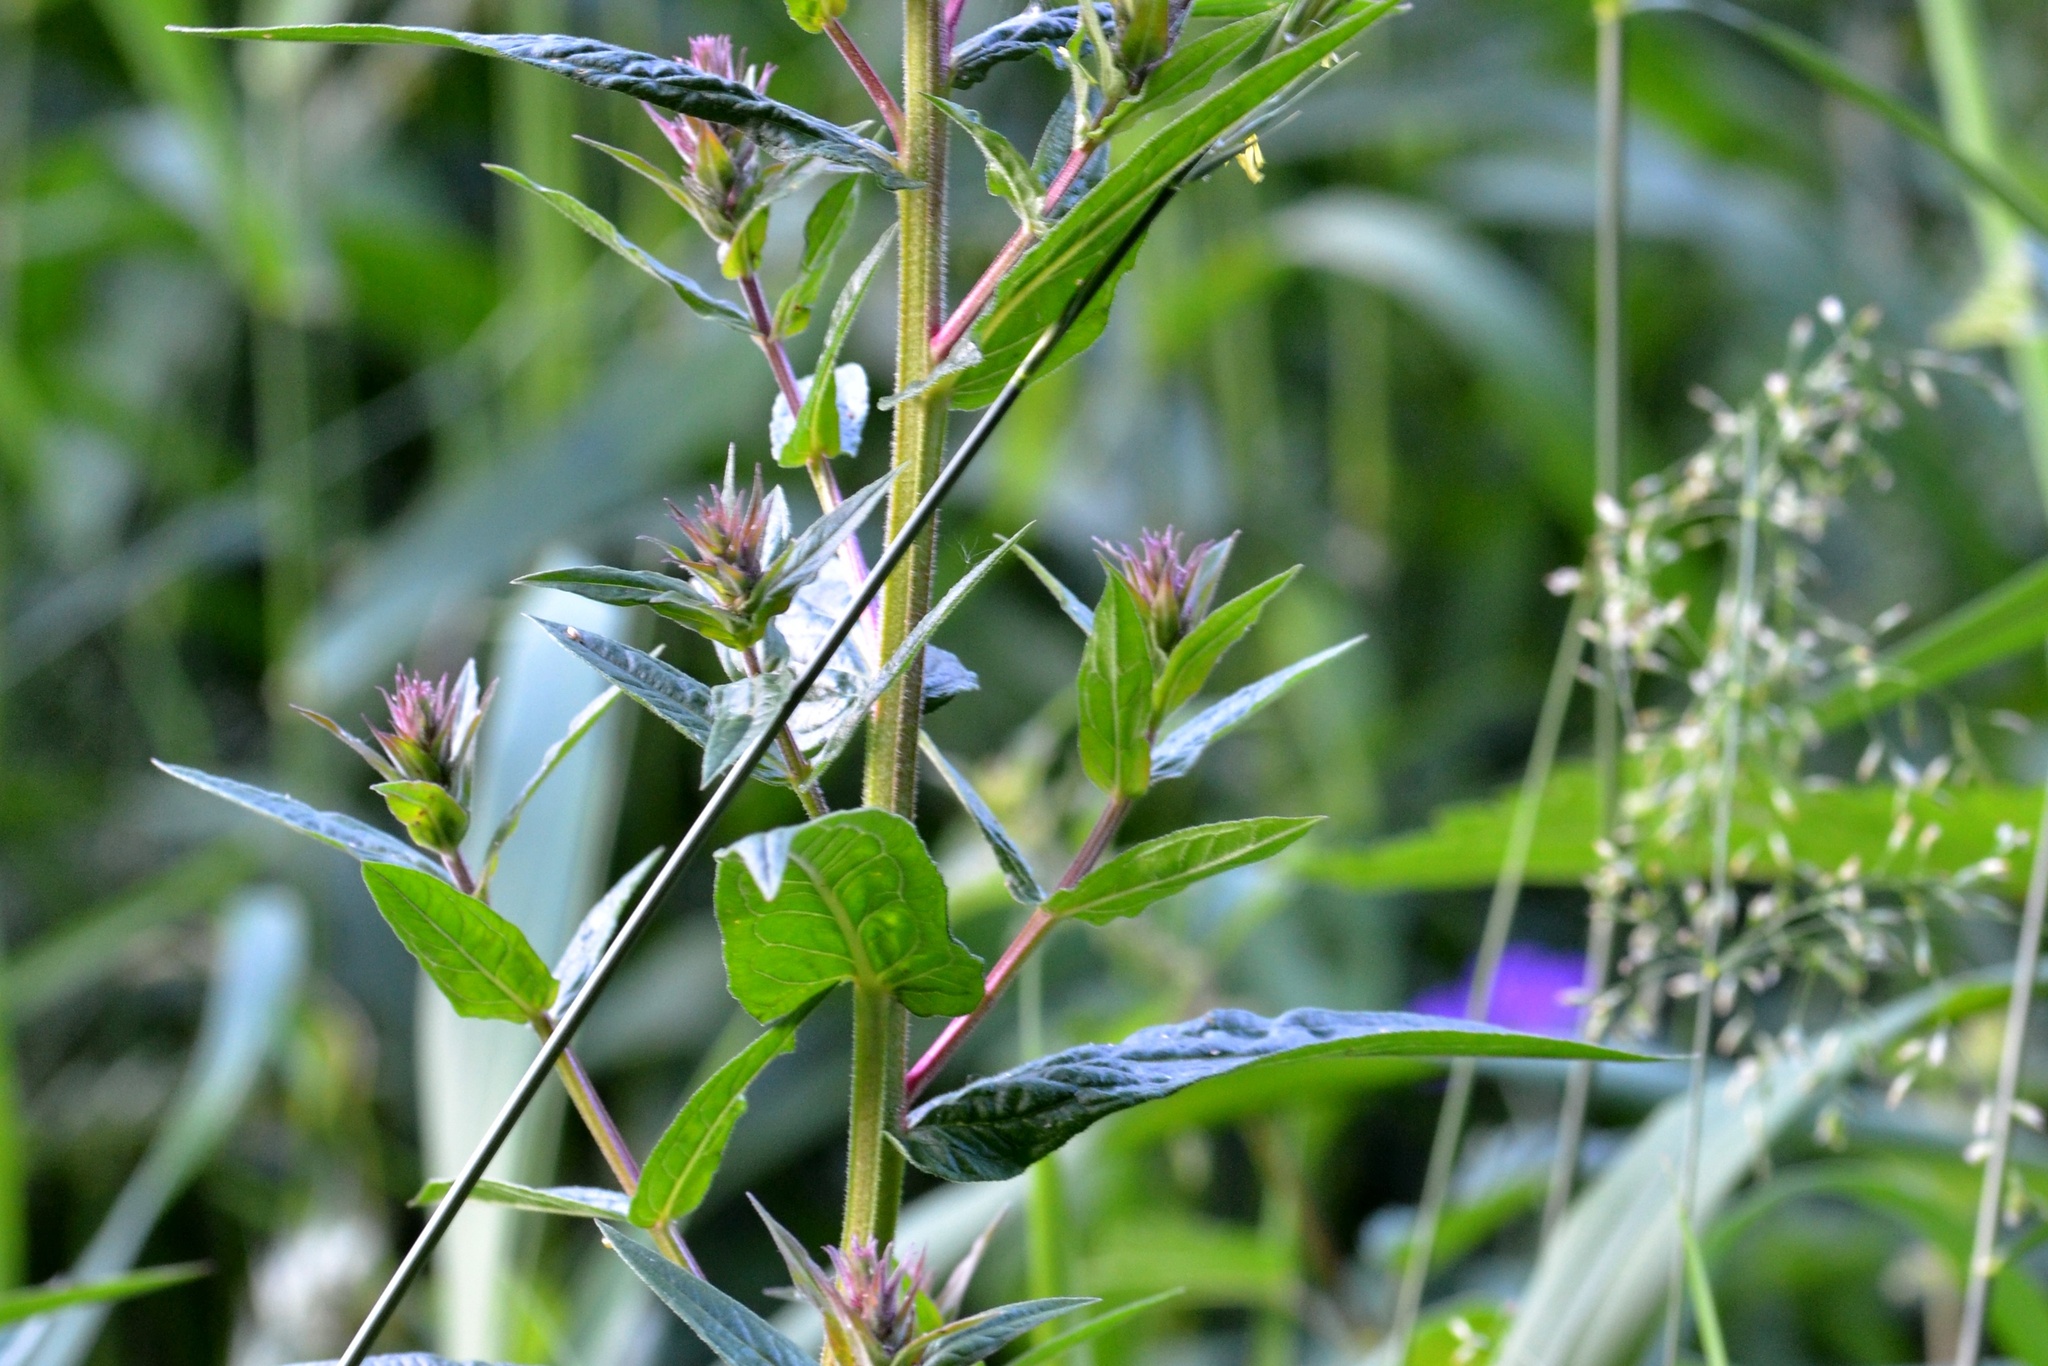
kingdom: Plantae
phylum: Tracheophyta
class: Magnoliopsida
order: Myrtales
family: Lythraceae
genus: Lythrum
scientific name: Lythrum salicaria
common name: Purple loosestrife
